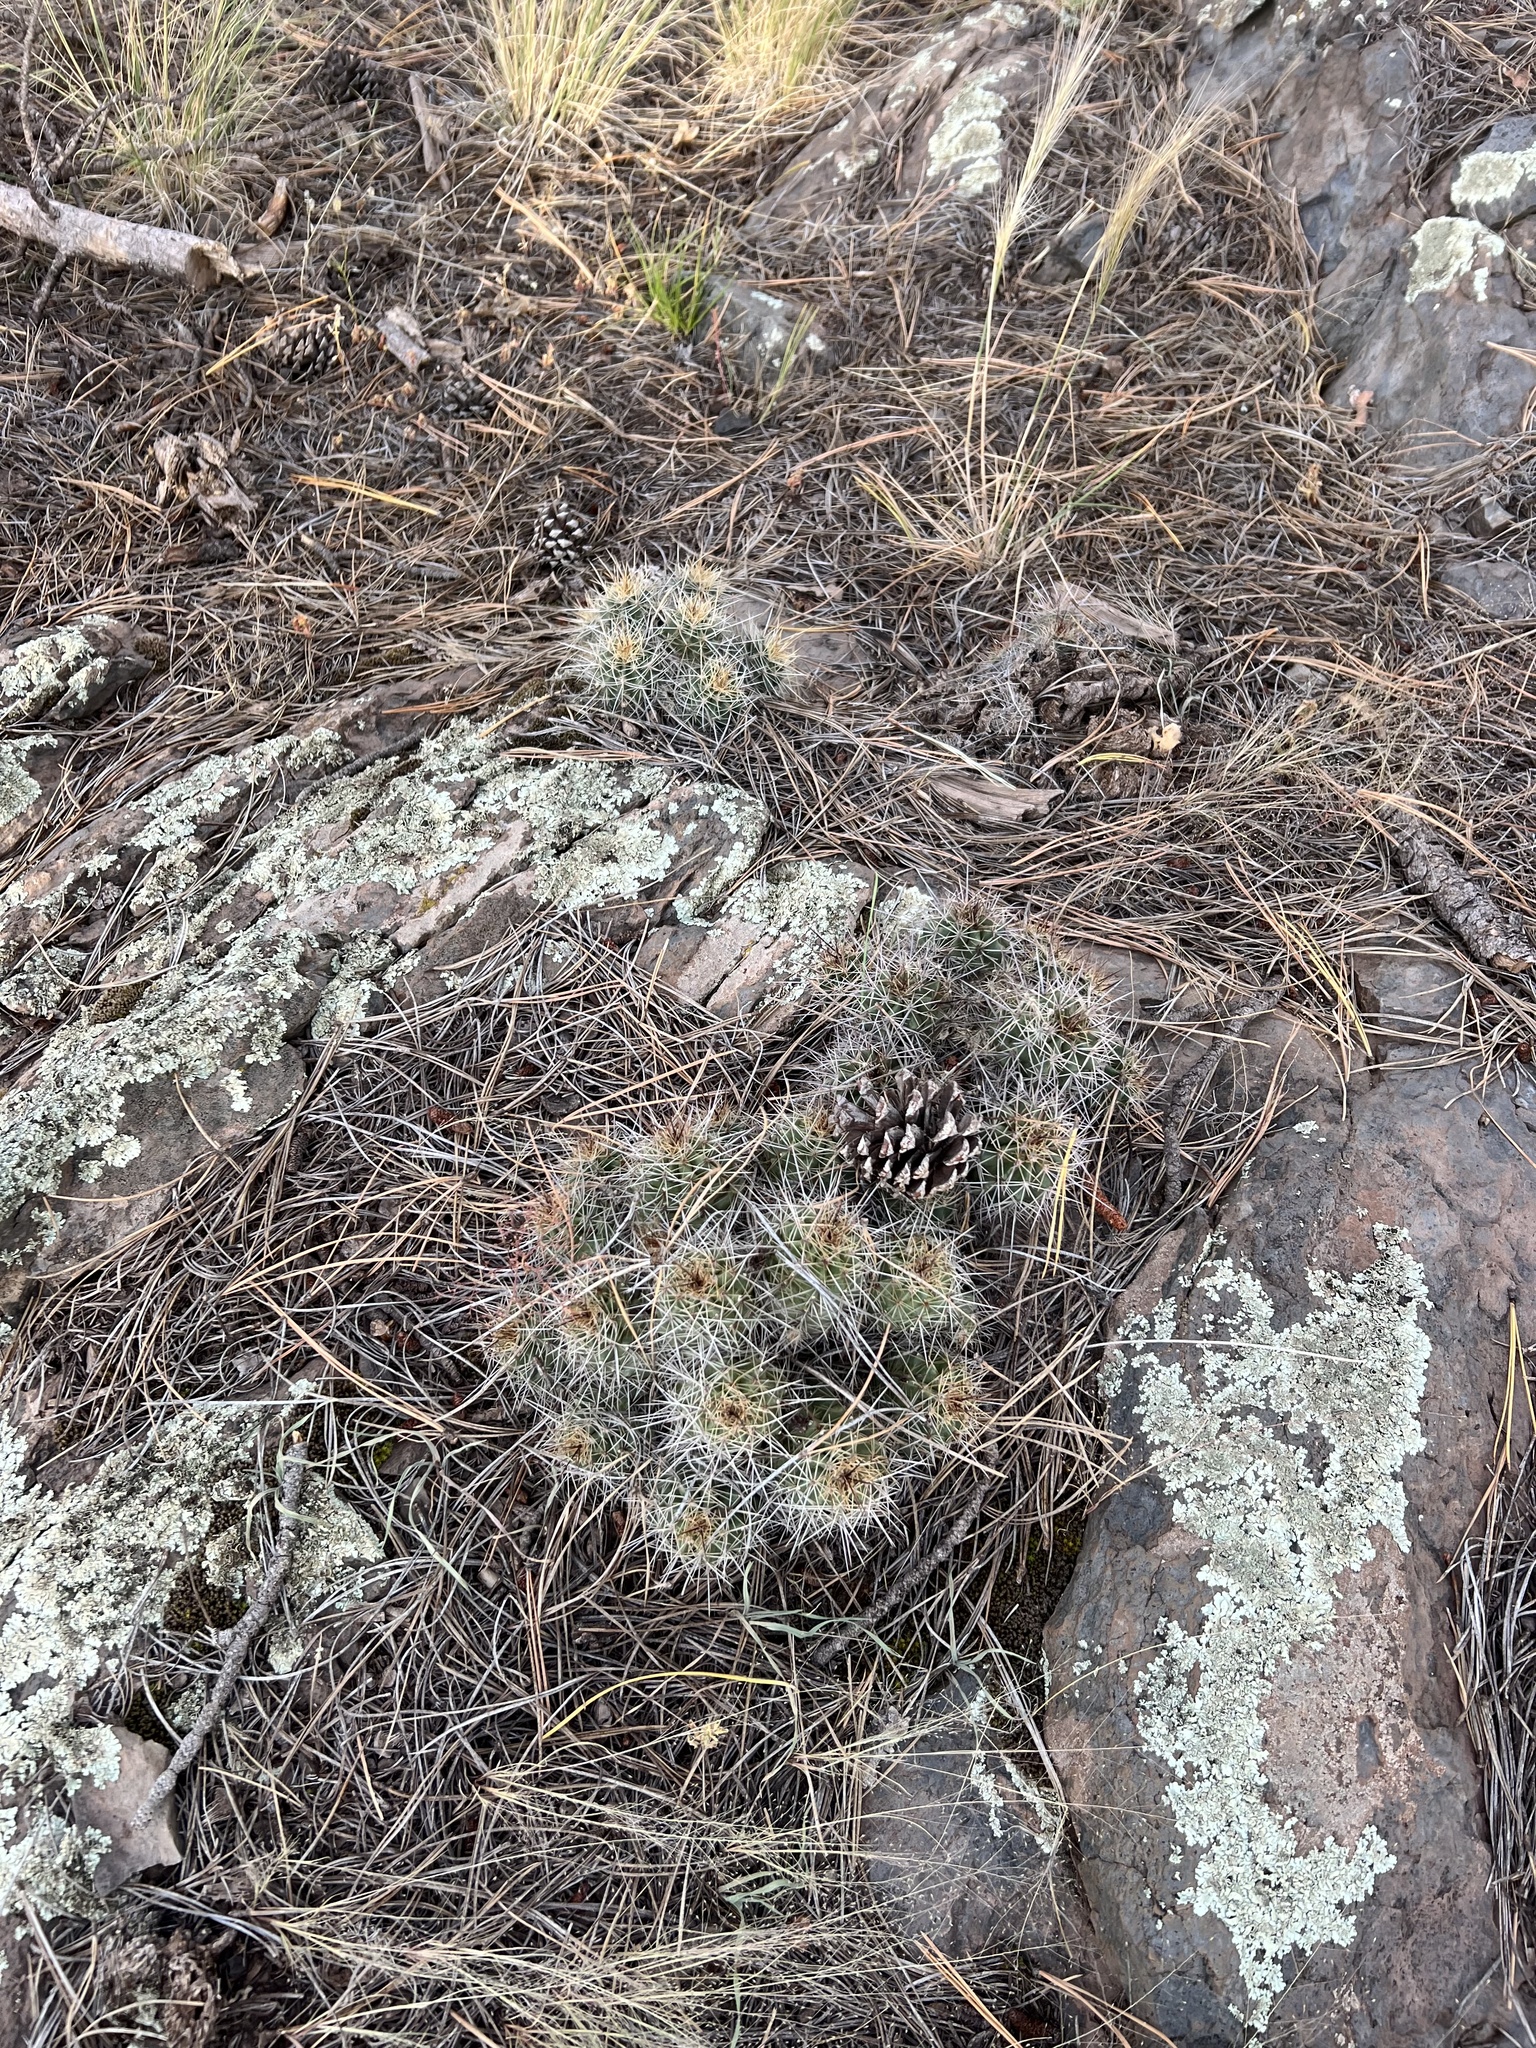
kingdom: Plantae
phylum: Tracheophyta
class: Magnoliopsida
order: Caryophyllales
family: Cactaceae
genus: Echinocereus
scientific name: Echinocereus bakeri
